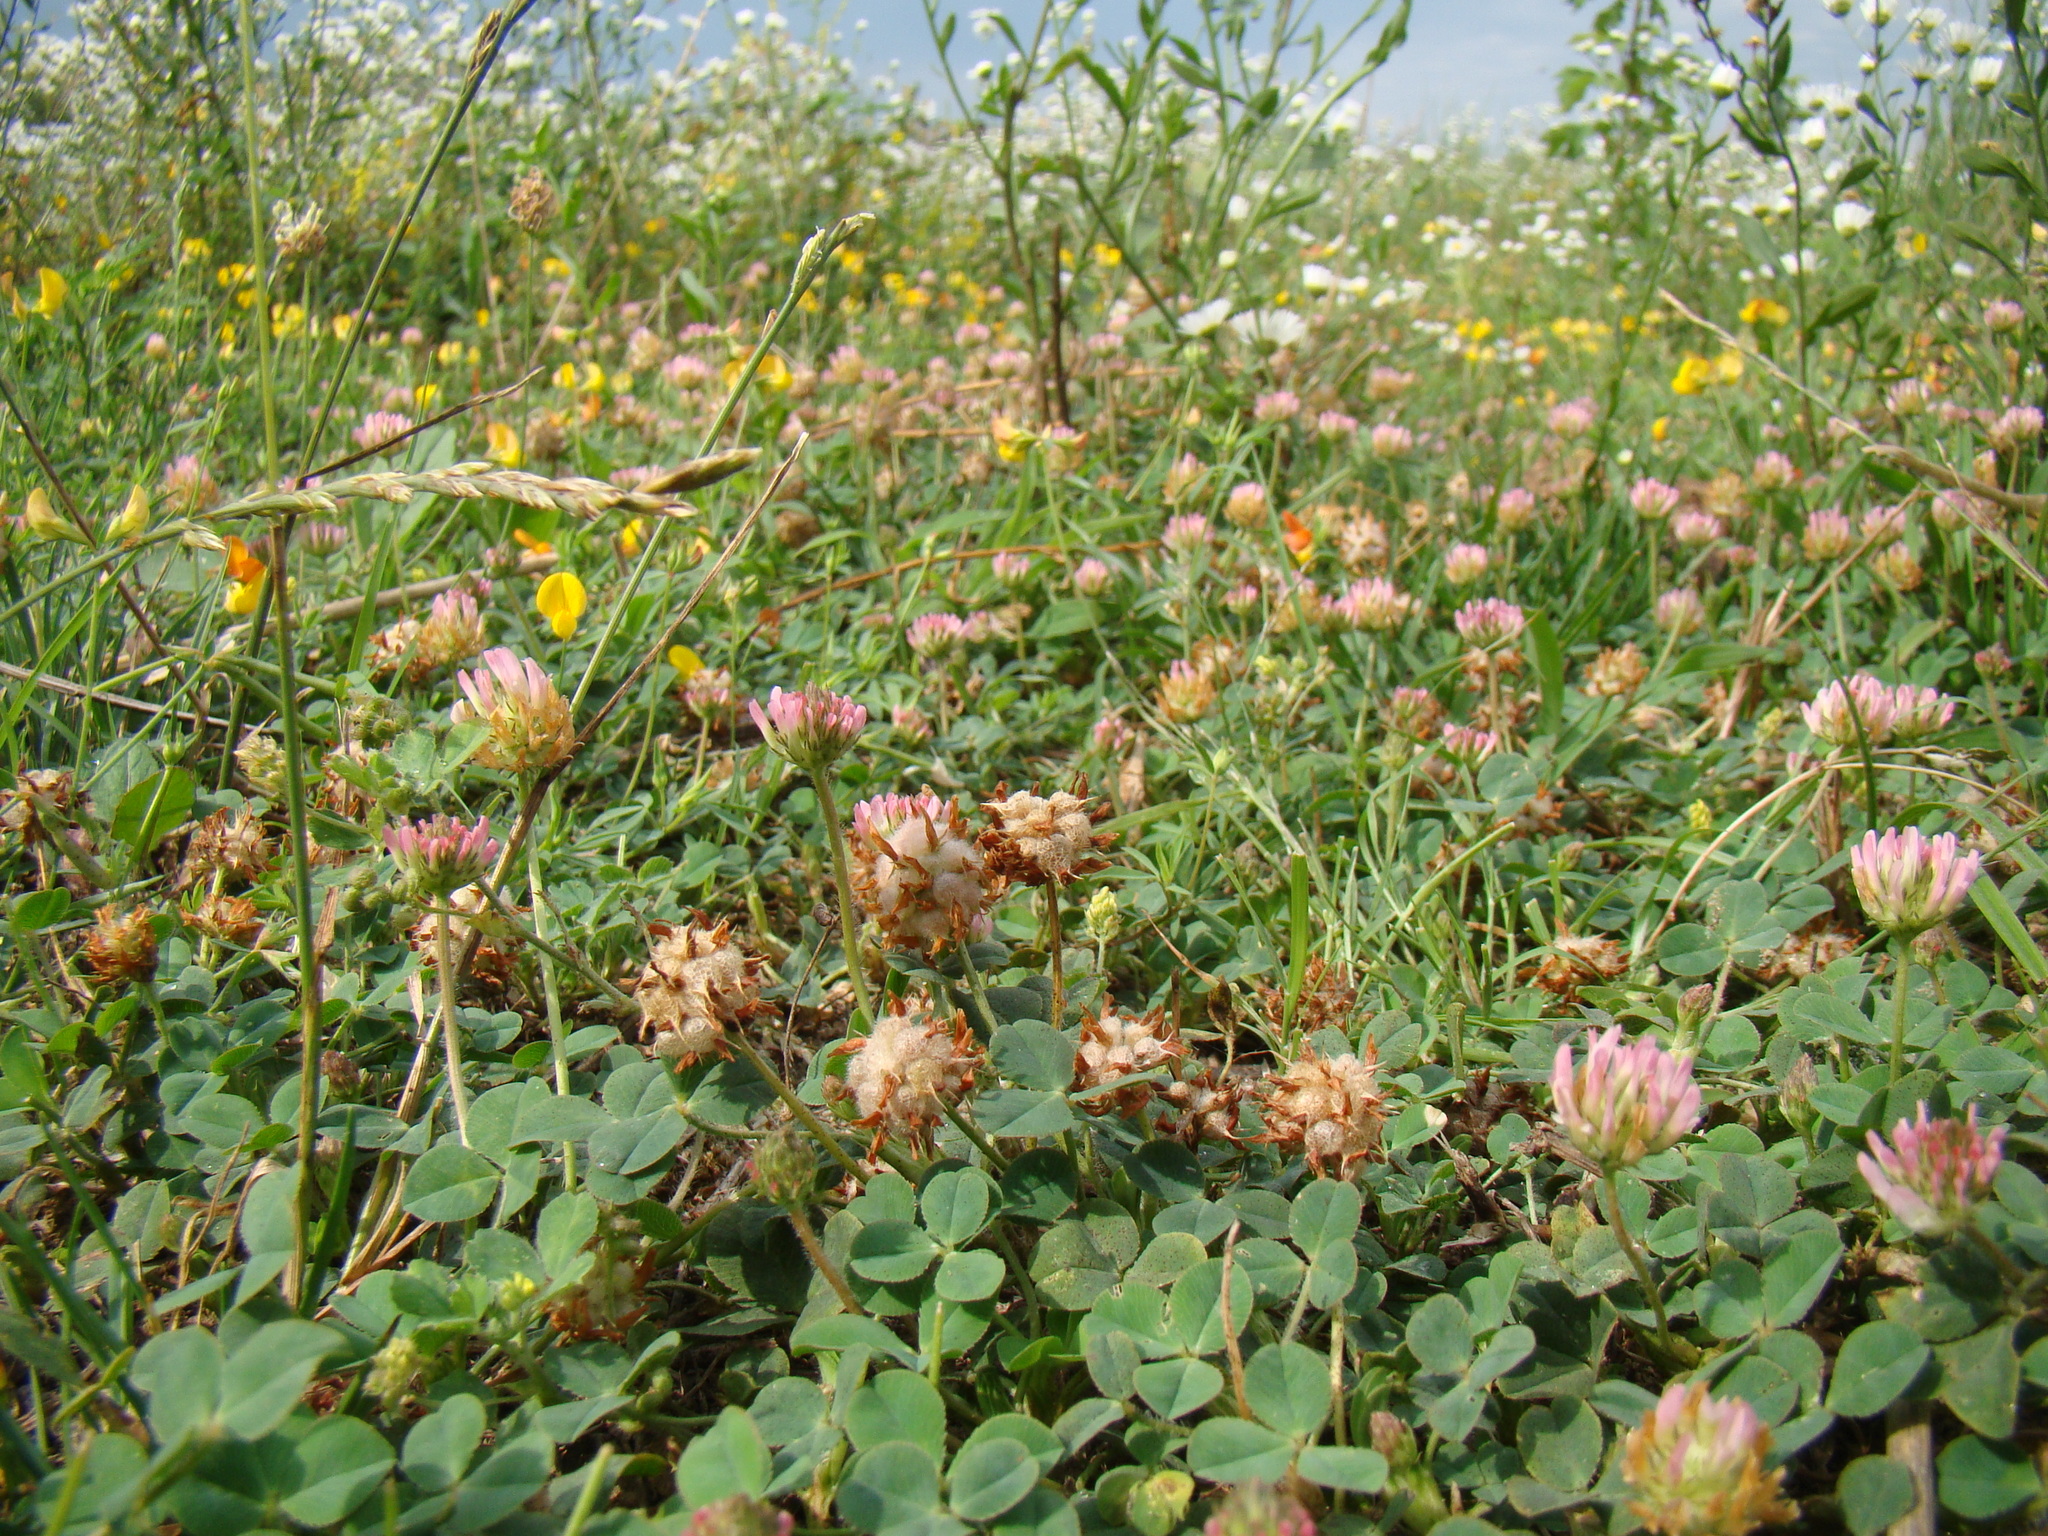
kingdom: Plantae
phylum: Tracheophyta
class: Magnoliopsida
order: Fabales
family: Fabaceae
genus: Trifolium
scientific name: Trifolium fragiferum
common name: Strawberry clover
